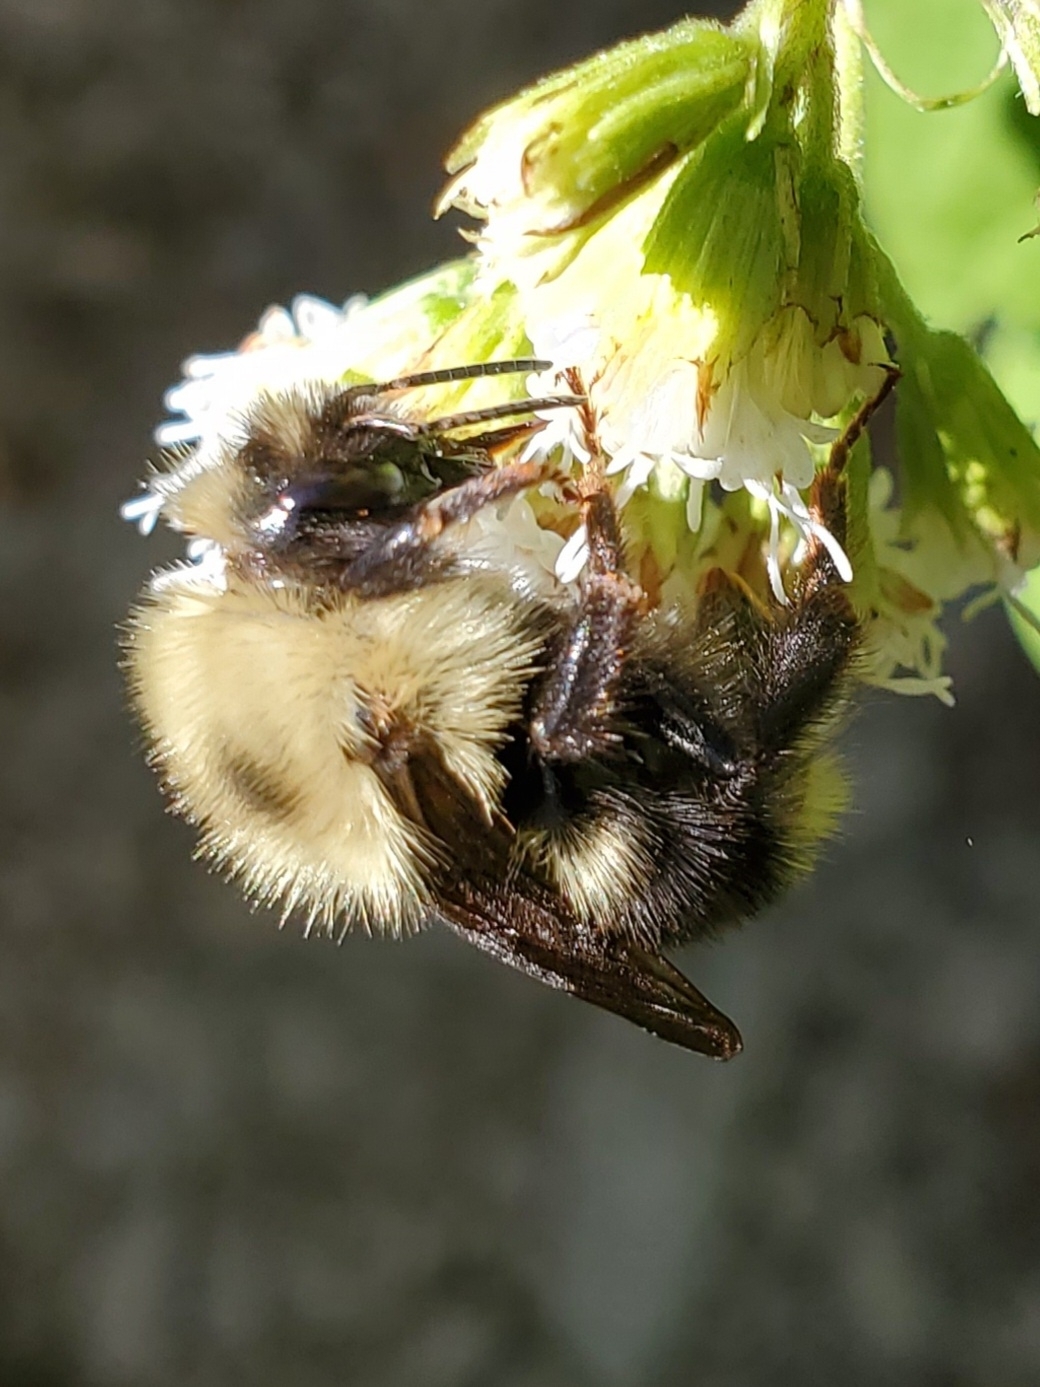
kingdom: Animalia
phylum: Arthropoda
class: Insecta
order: Hymenoptera
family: Apidae
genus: Bombus
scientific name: Bombus flavidus
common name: Fernald cuckoo bumble bee
